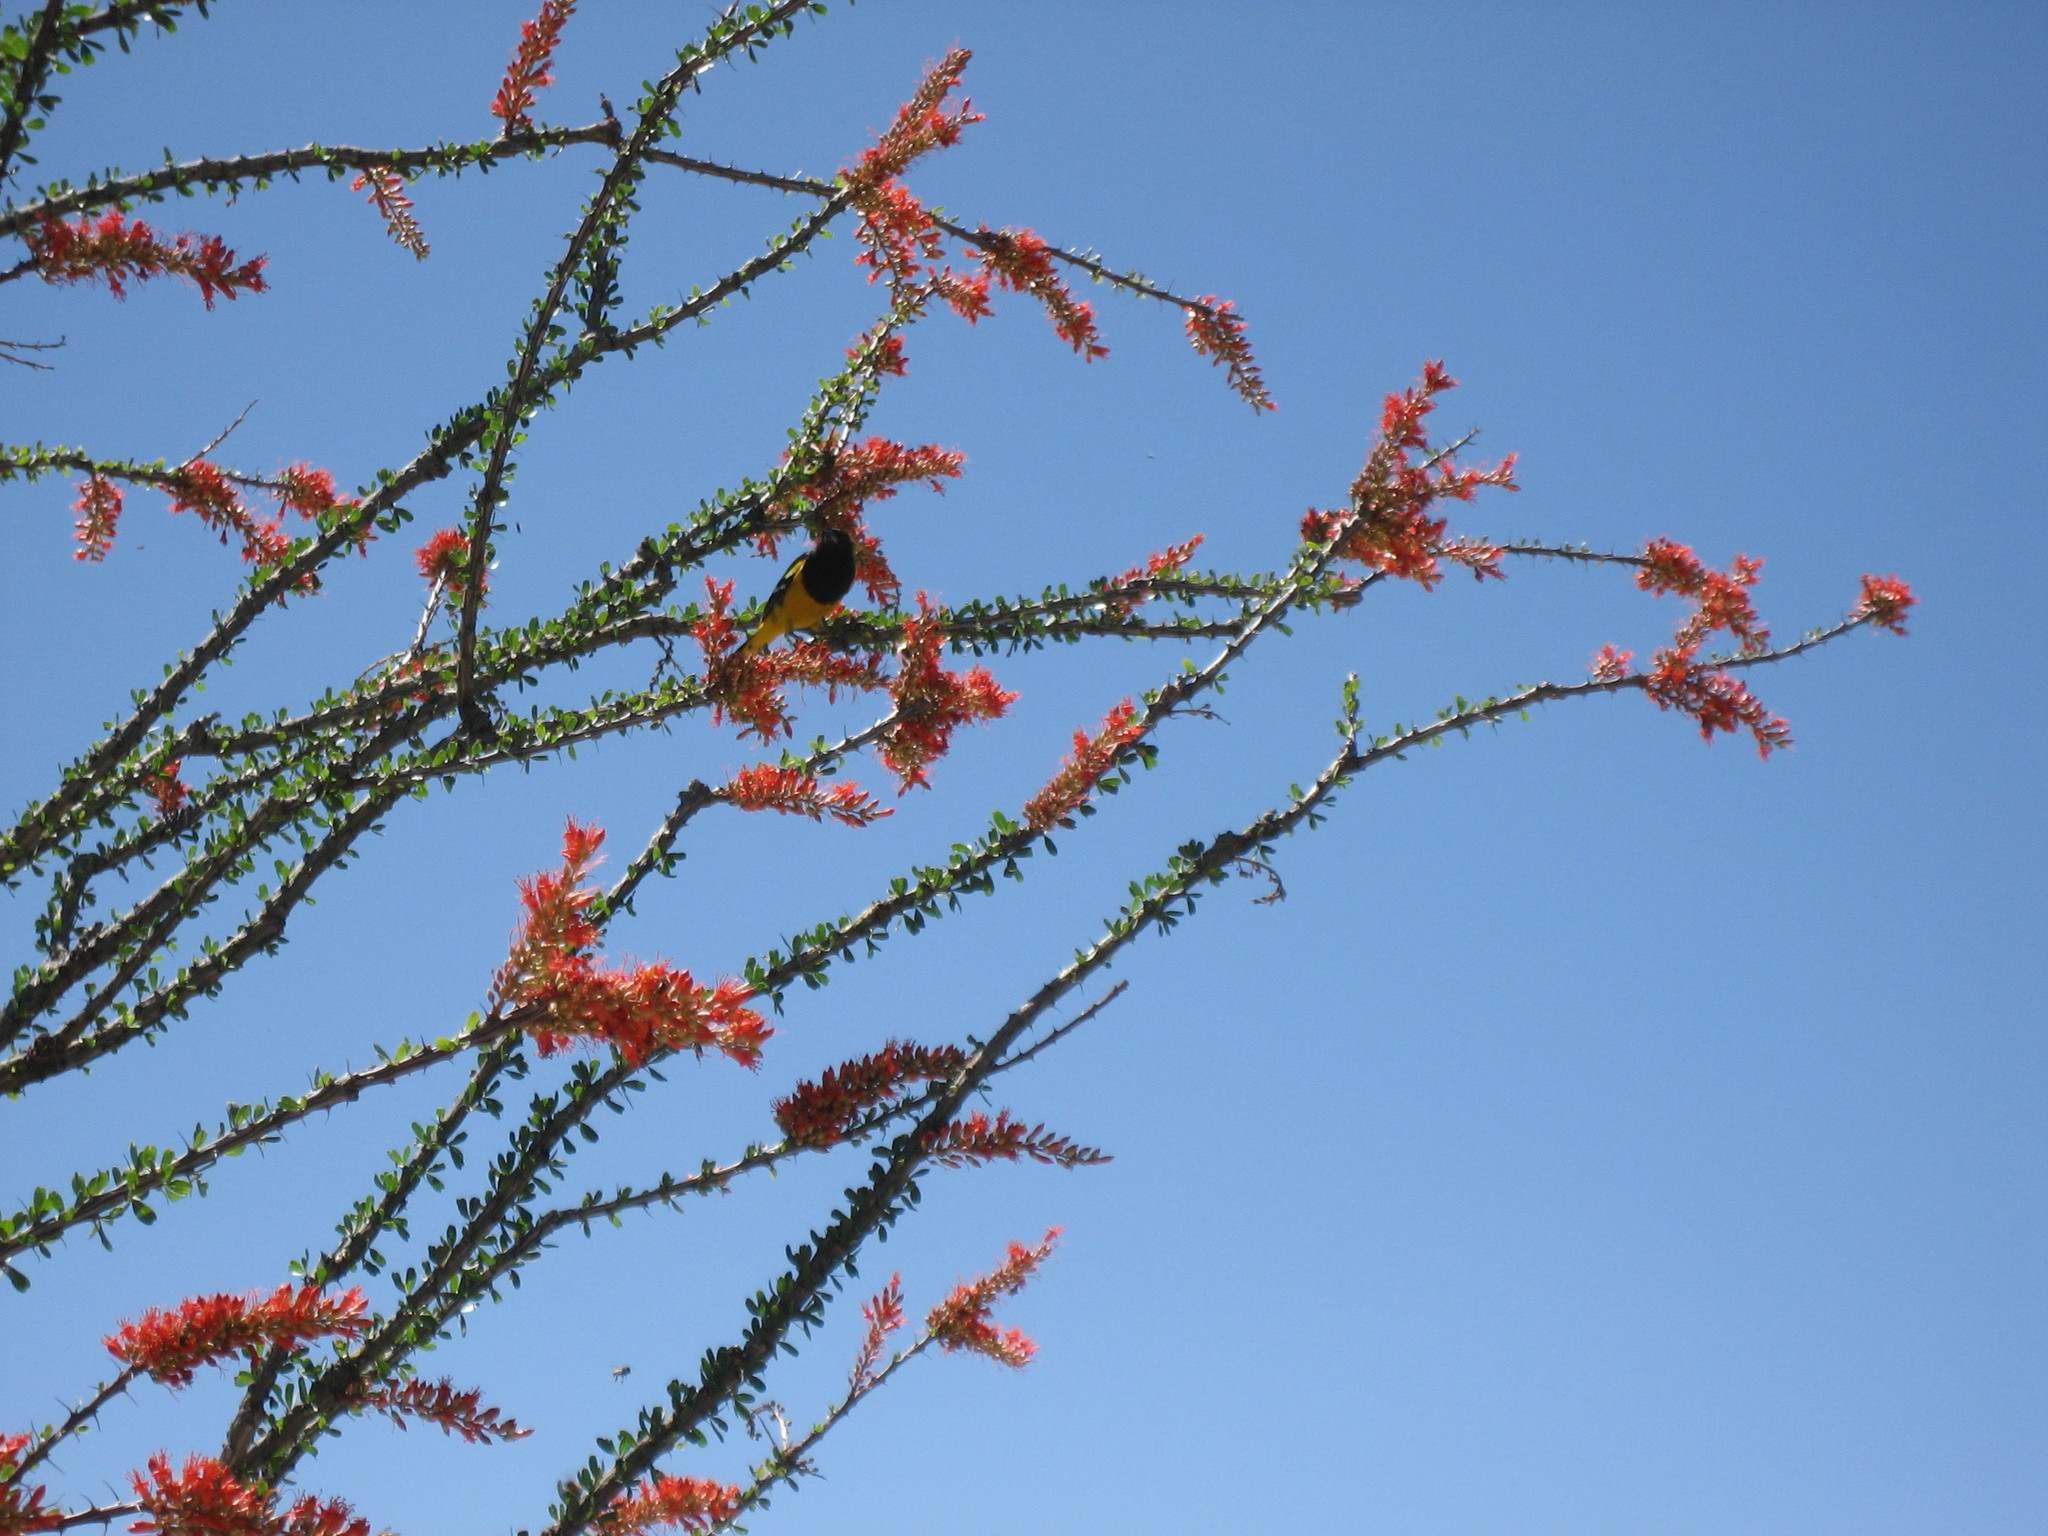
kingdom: Animalia
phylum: Chordata
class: Aves
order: Passeriformes
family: Icteridae
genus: Icterus
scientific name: Icterus parisorum
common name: Scott's oriole
